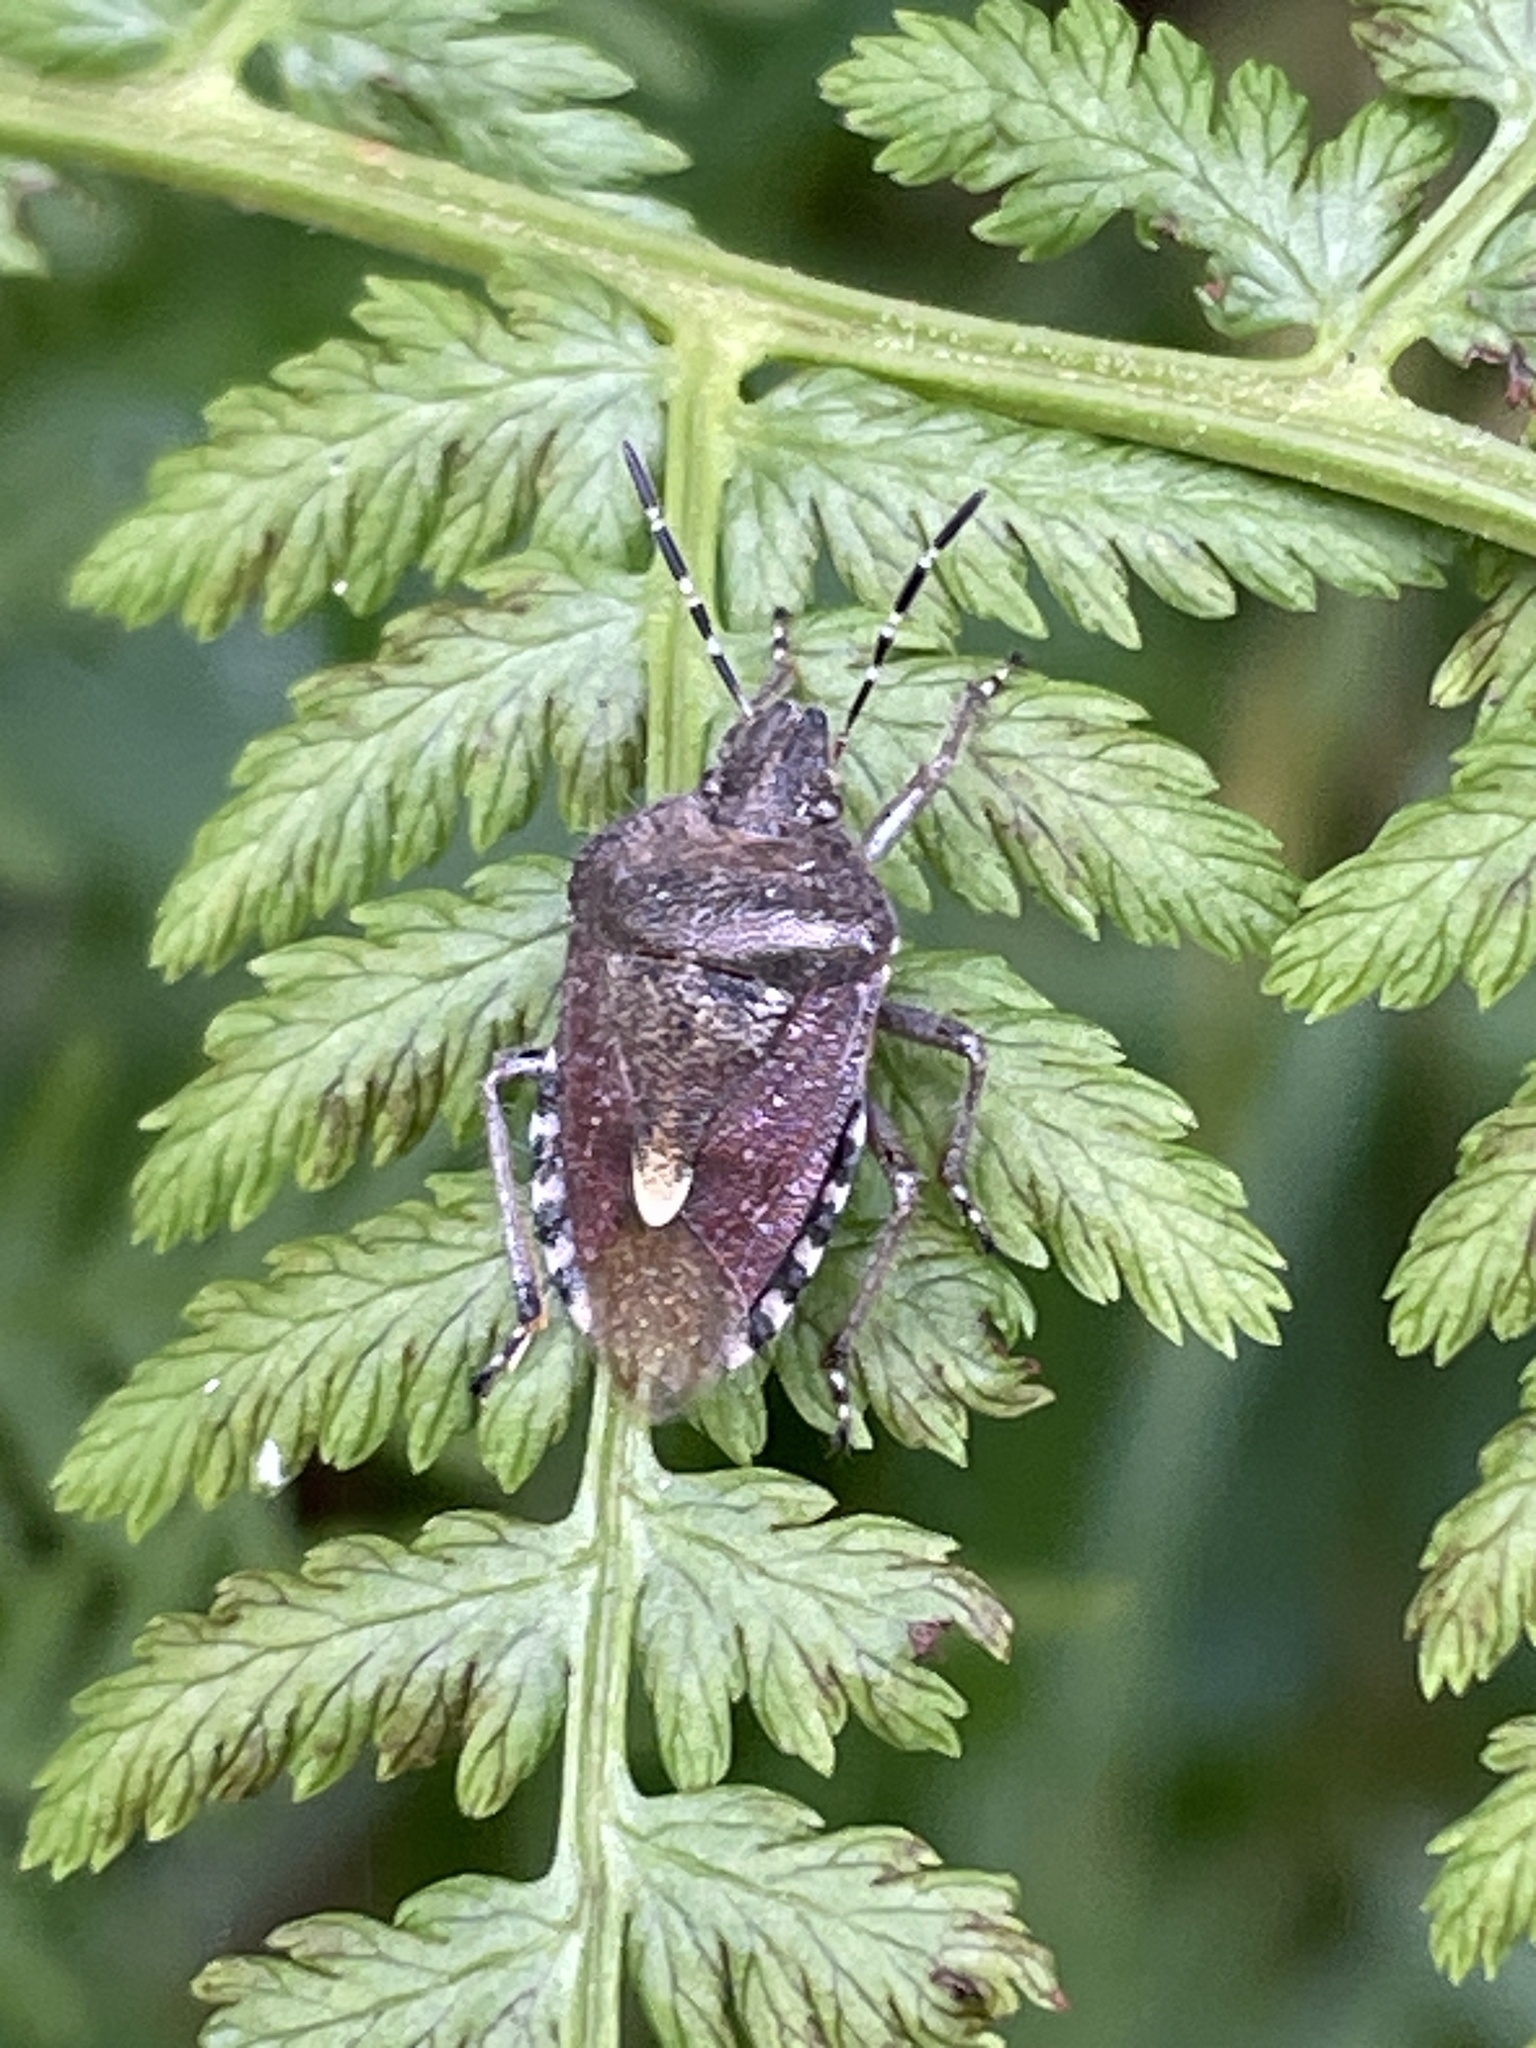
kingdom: Animalia
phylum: Arthropoda
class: Insecta
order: Hemiptera
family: Pentatomidae
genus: Dolycoris
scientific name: Dolycoris baccarum
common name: Sloe bug
